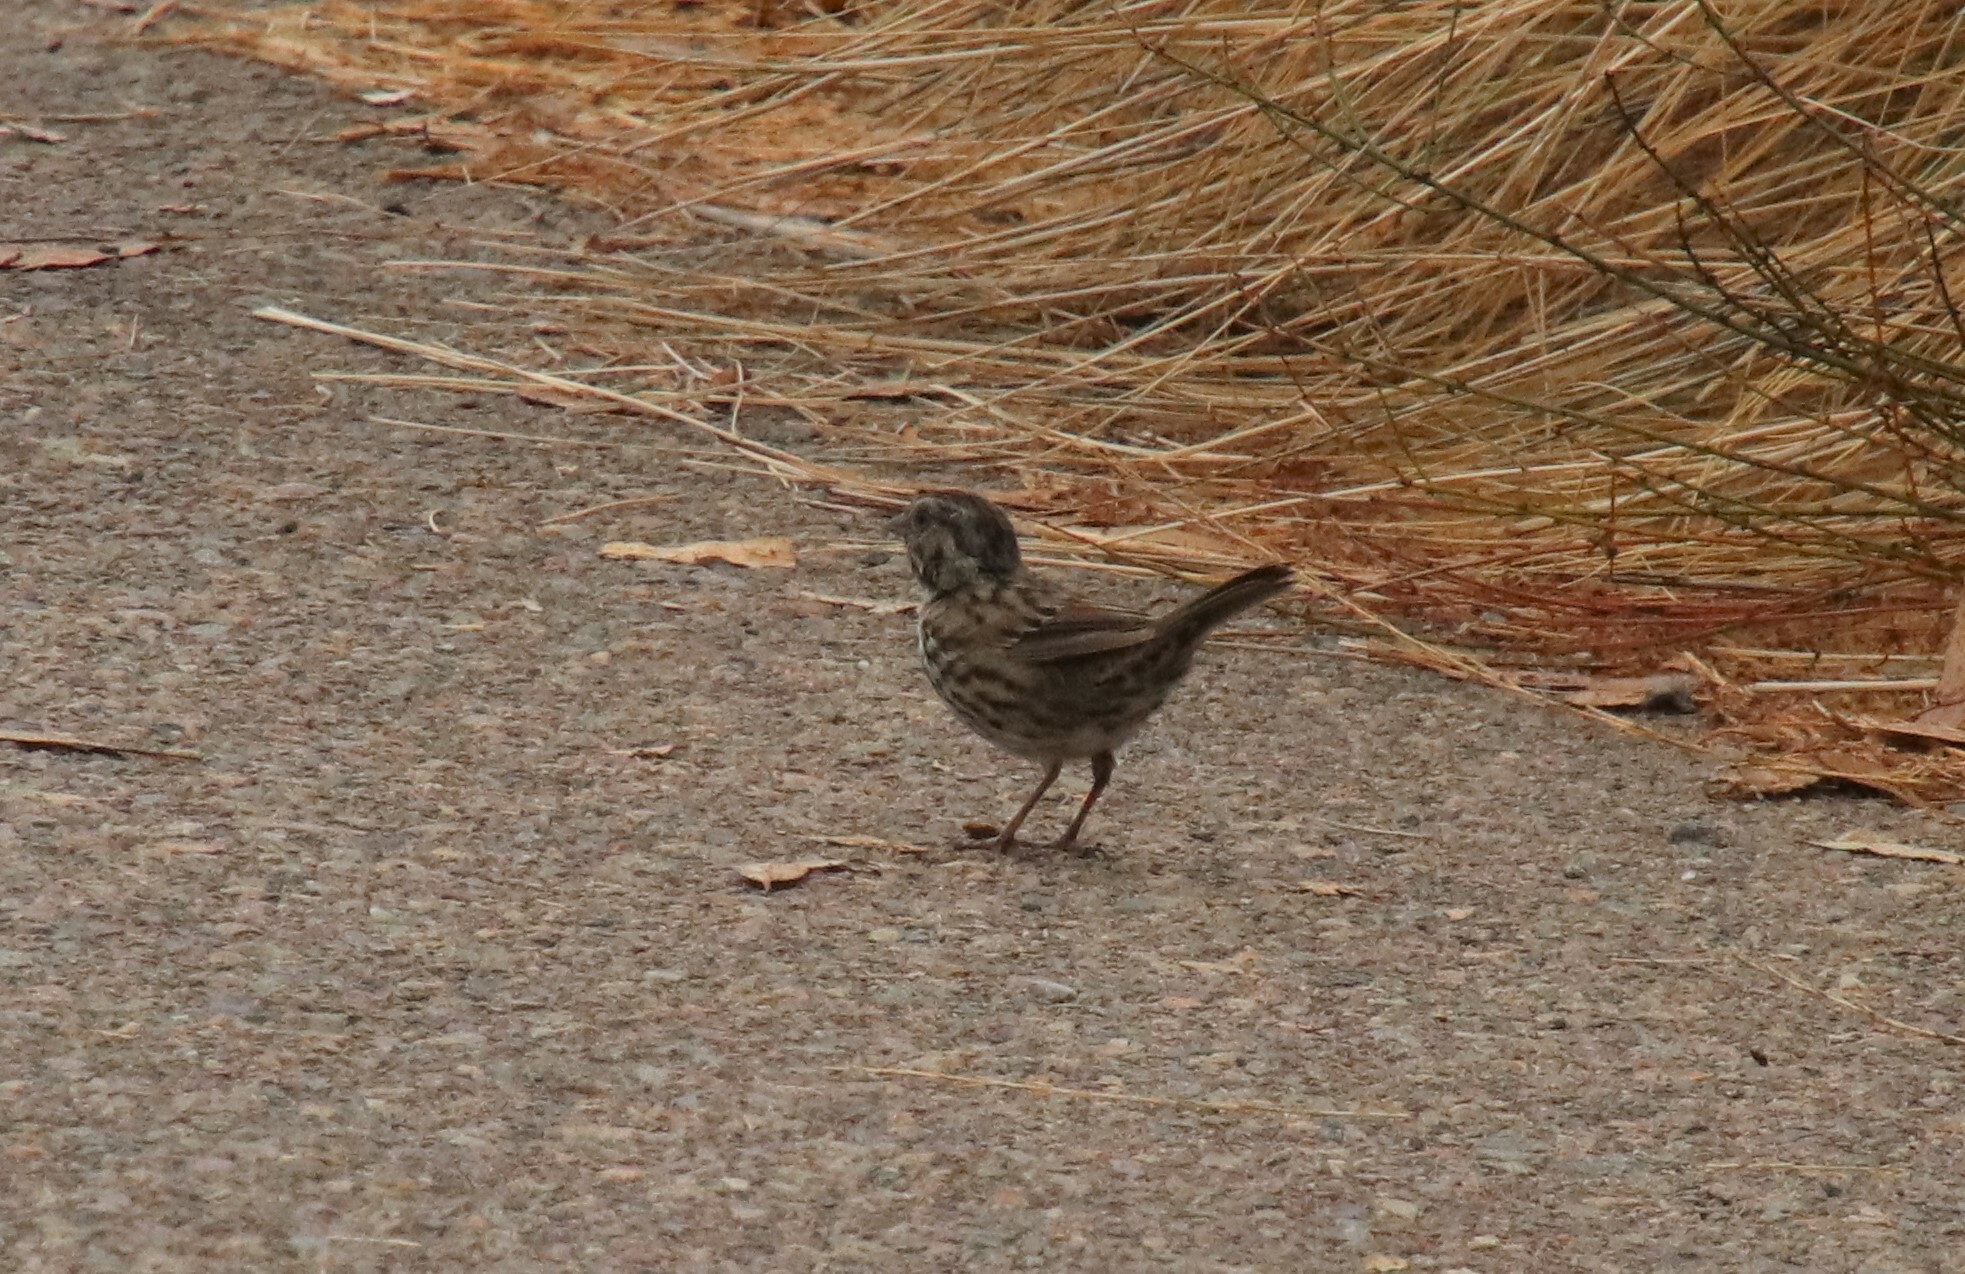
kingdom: Animalia
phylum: Chordata
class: Aves
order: Passeriformes
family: Passerellidae
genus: Melospiza
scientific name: Melospiza melodia
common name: Song sparrow
